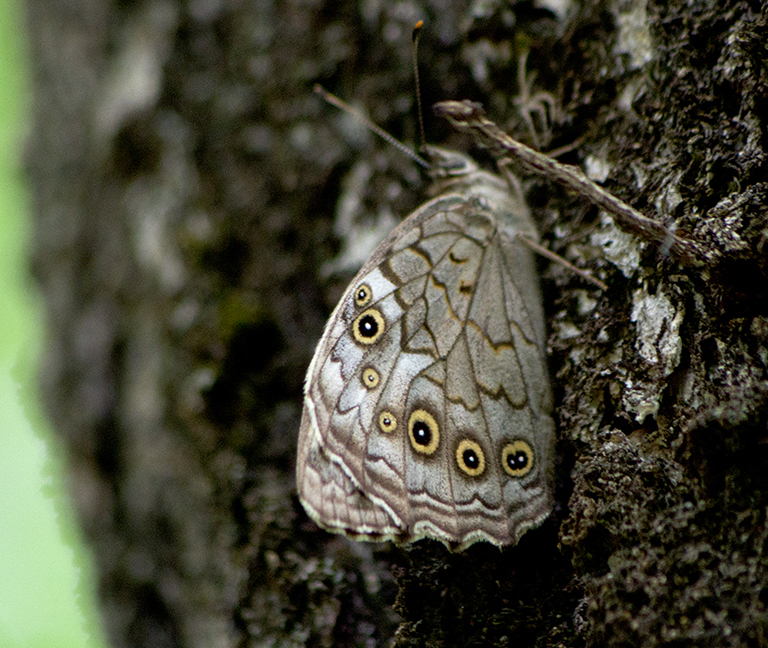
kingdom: Animalia
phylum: Arthropoda
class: Insecta
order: Lepidoptera
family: Nymphalidae
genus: Kirinia
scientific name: Kirinia roxelana
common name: Lattice brown
